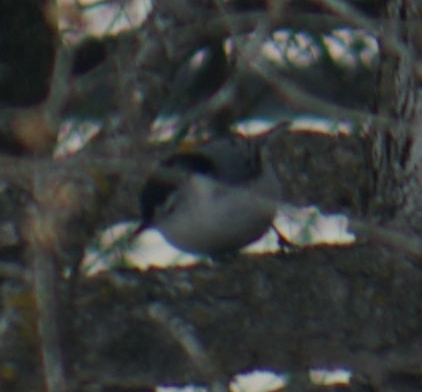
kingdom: Animalia
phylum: Chordata
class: Aves
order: Passeriformes
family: Sittidae
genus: Sitta
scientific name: Sitta carolinensis
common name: White-breasted nuthatch
